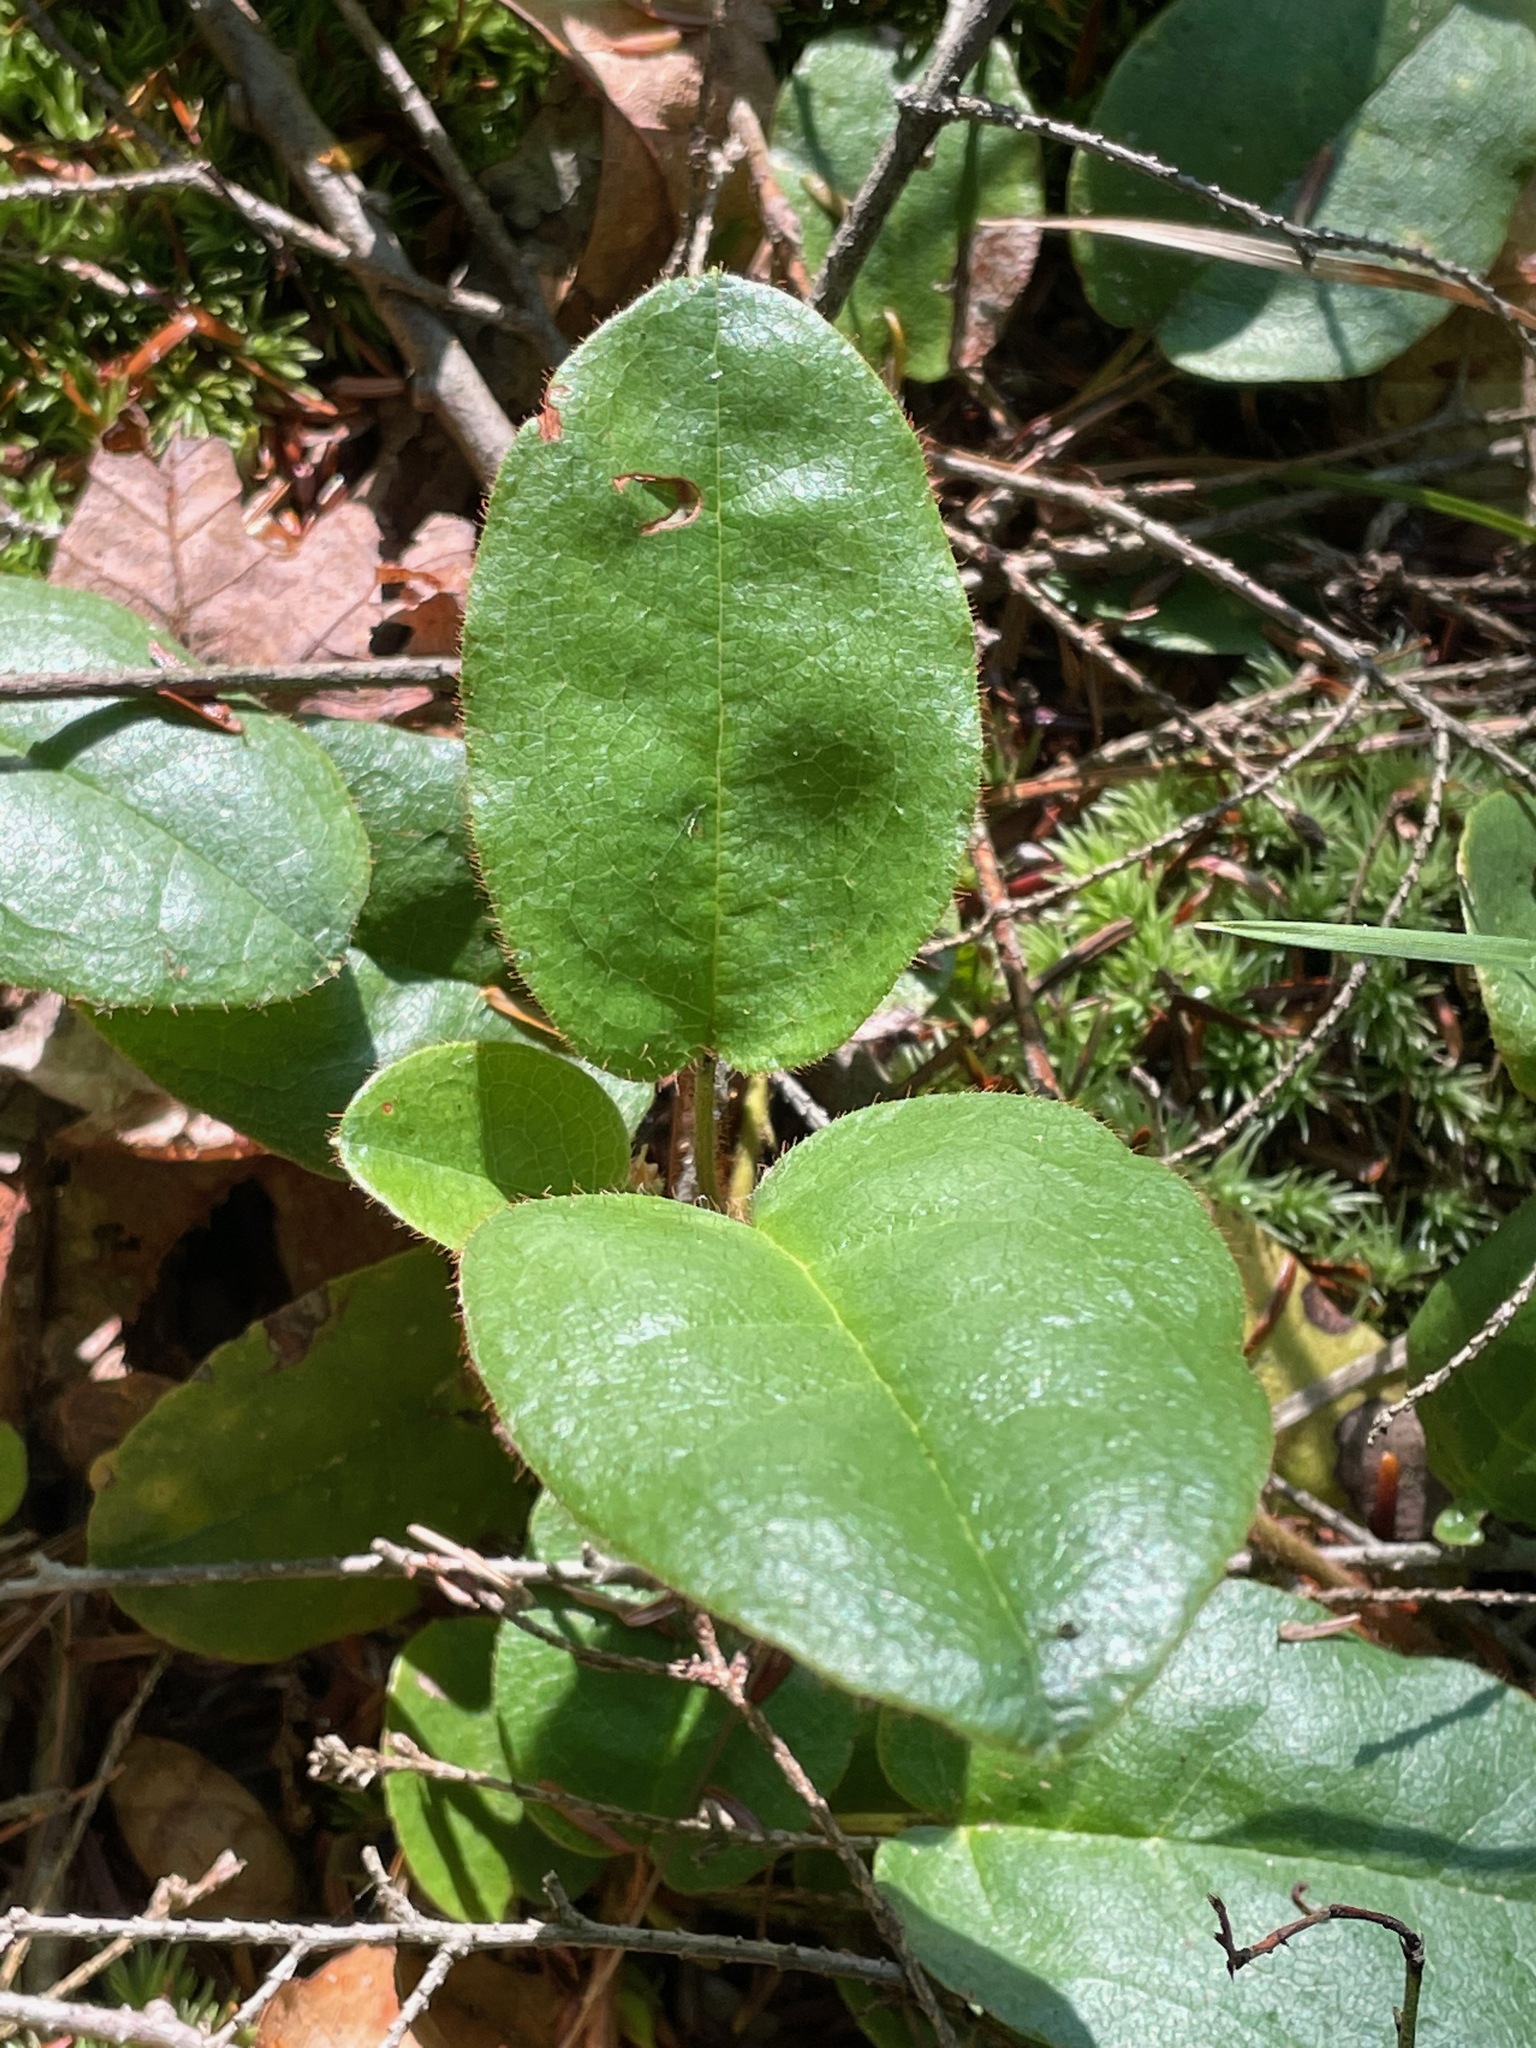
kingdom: Plantae
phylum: Tracheophyta
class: Magnoliopsida
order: Ericales
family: Ericaceae
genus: Epigaea
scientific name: Epigaea repens
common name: Gravelroot
